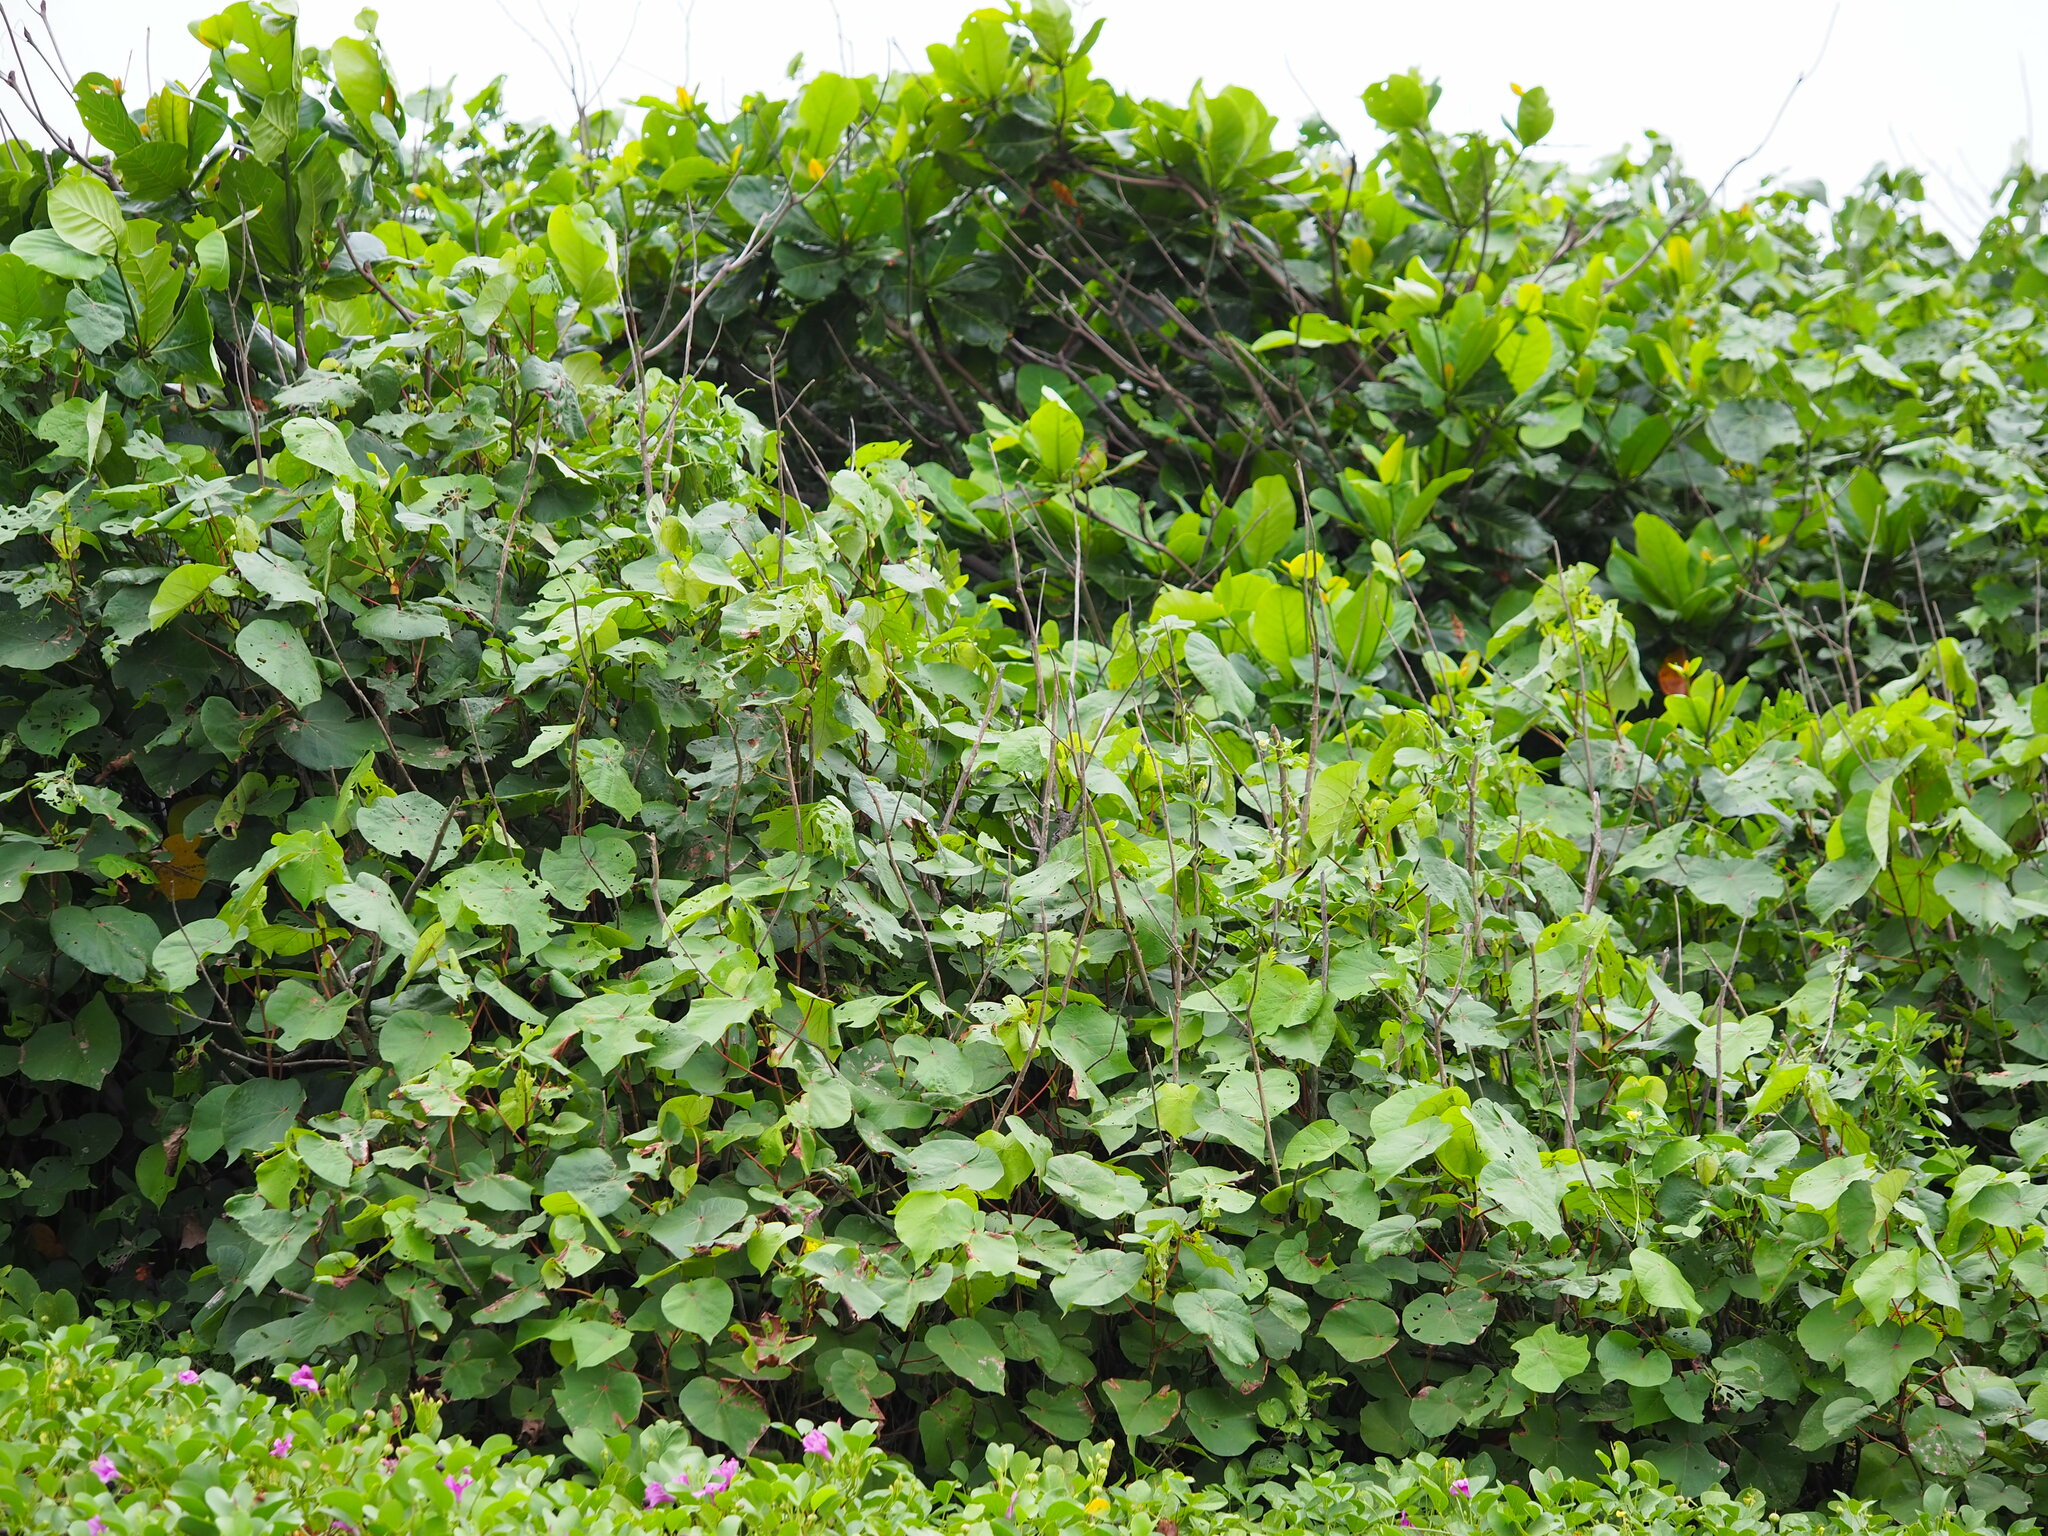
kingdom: Plantae
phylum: Tracheophyta
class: Magnoliopsida
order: Malvales
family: Malvaceae
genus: Talipariti
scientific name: Talipariti tiliaceum
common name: Sea hibiscus
